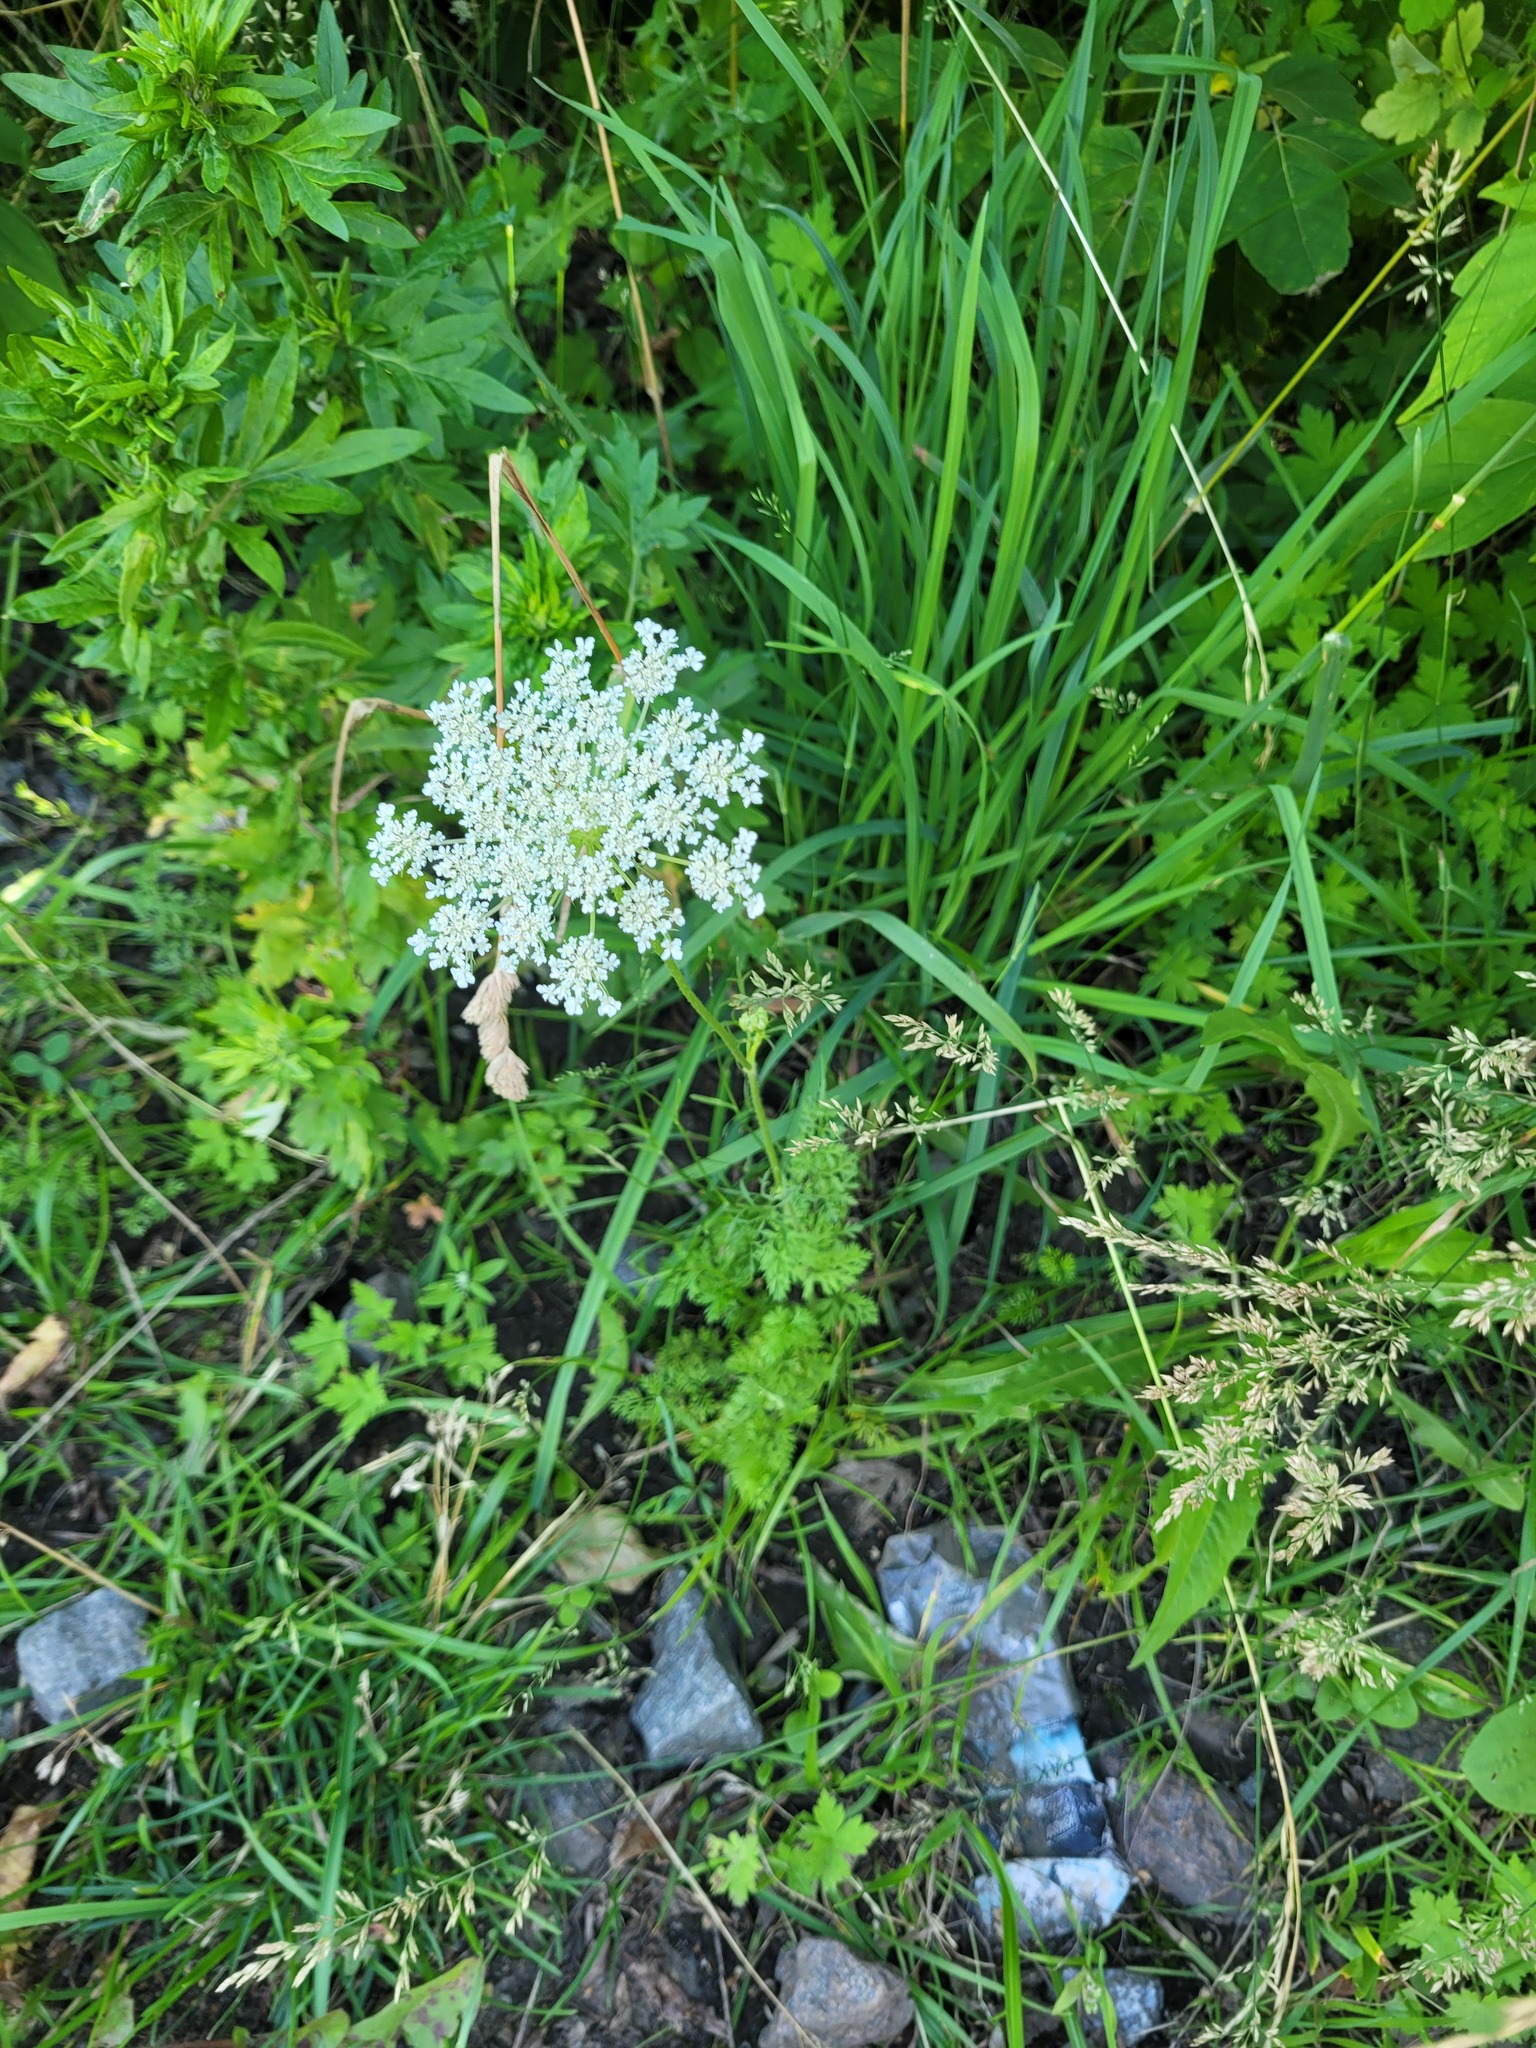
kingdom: Plantae
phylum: Tracheophyta
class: Magnoliopsida
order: Apiales
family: Apiaceae
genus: Daucus
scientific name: Daucus carota
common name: Wild carrot
